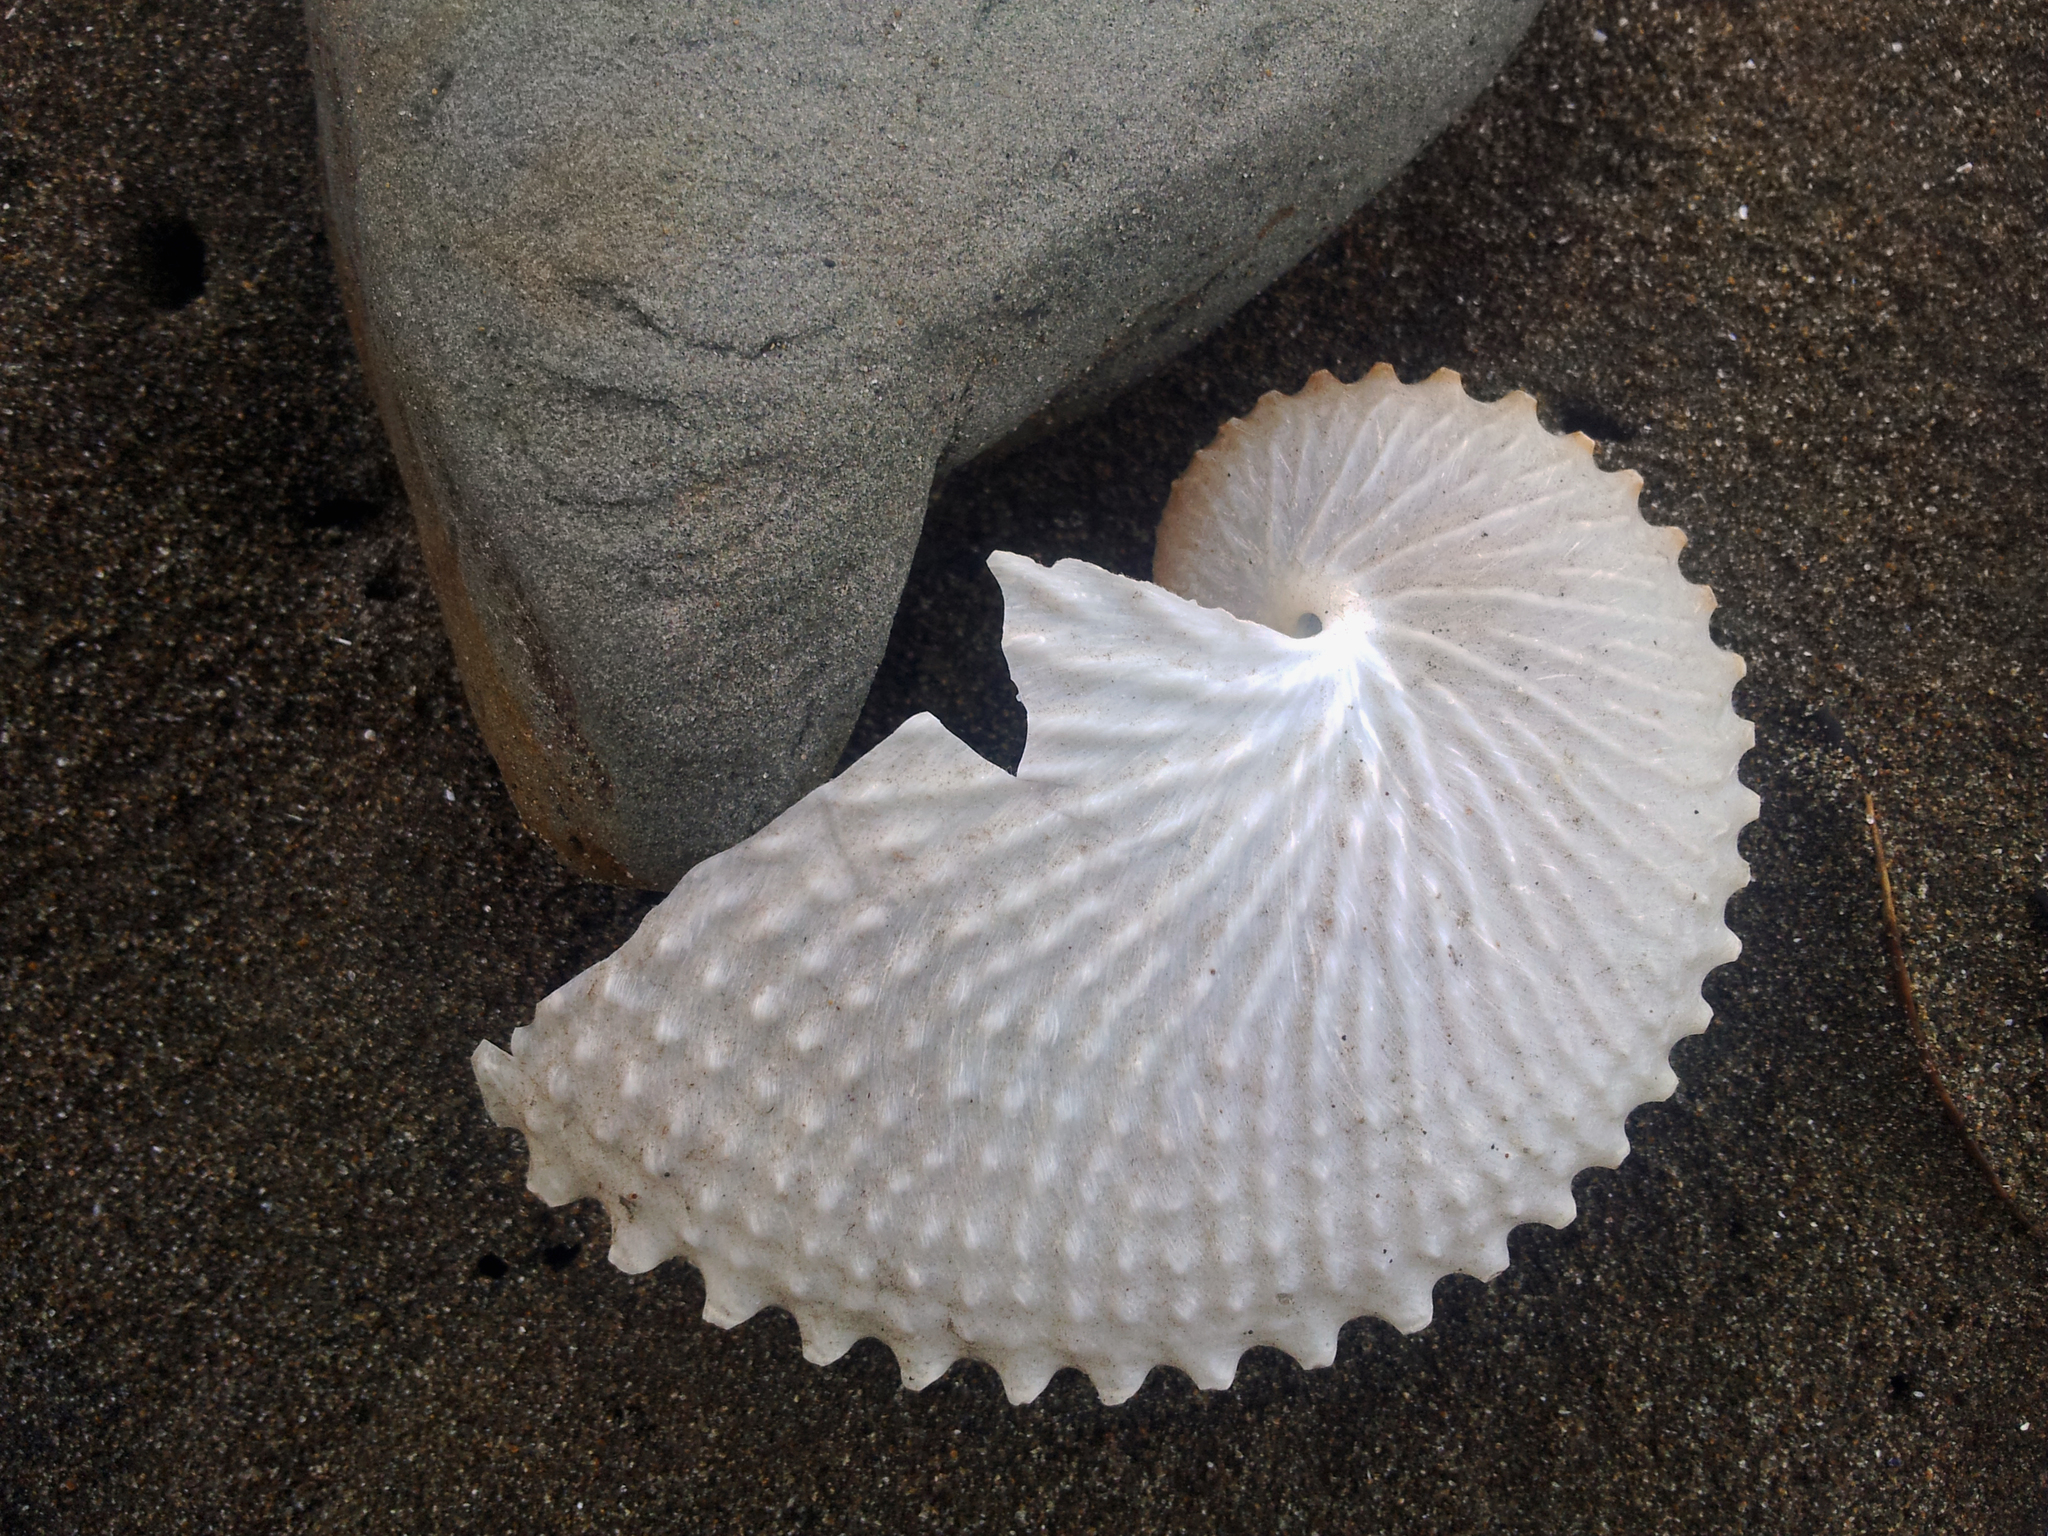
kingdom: Animalia
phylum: Mollusca
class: Cephalopoda
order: Octopoda
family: Argonautidae
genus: Argonauta
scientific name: Argonauta nodosus
